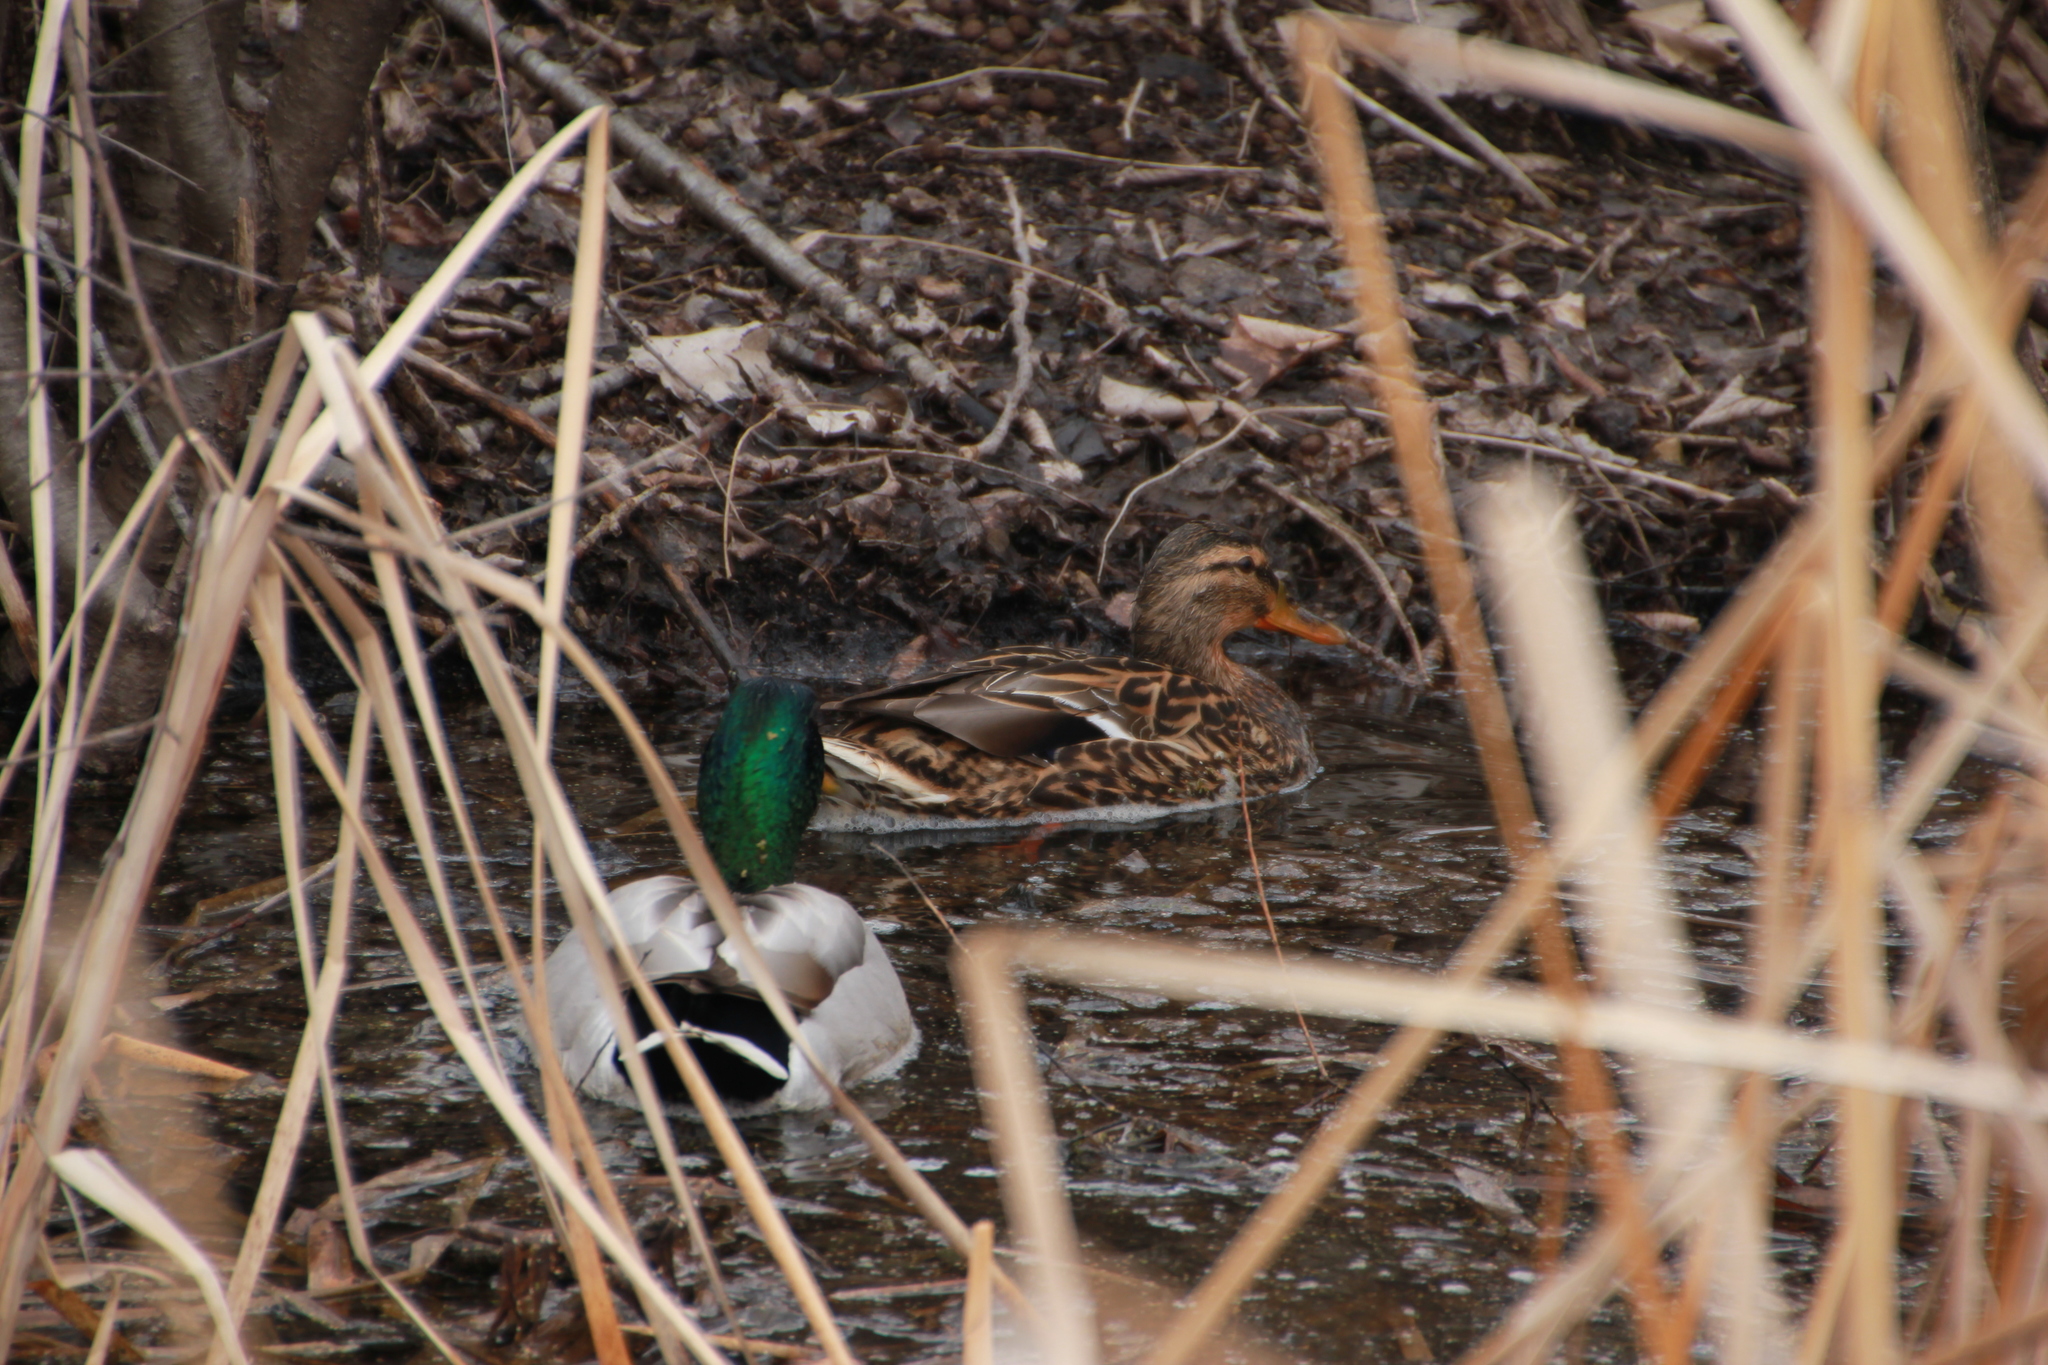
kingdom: Animalia
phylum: Chordata
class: Aves
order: Anseriformes
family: Anatidae
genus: Anas
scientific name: Anas platyrhynchos
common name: Mallard
